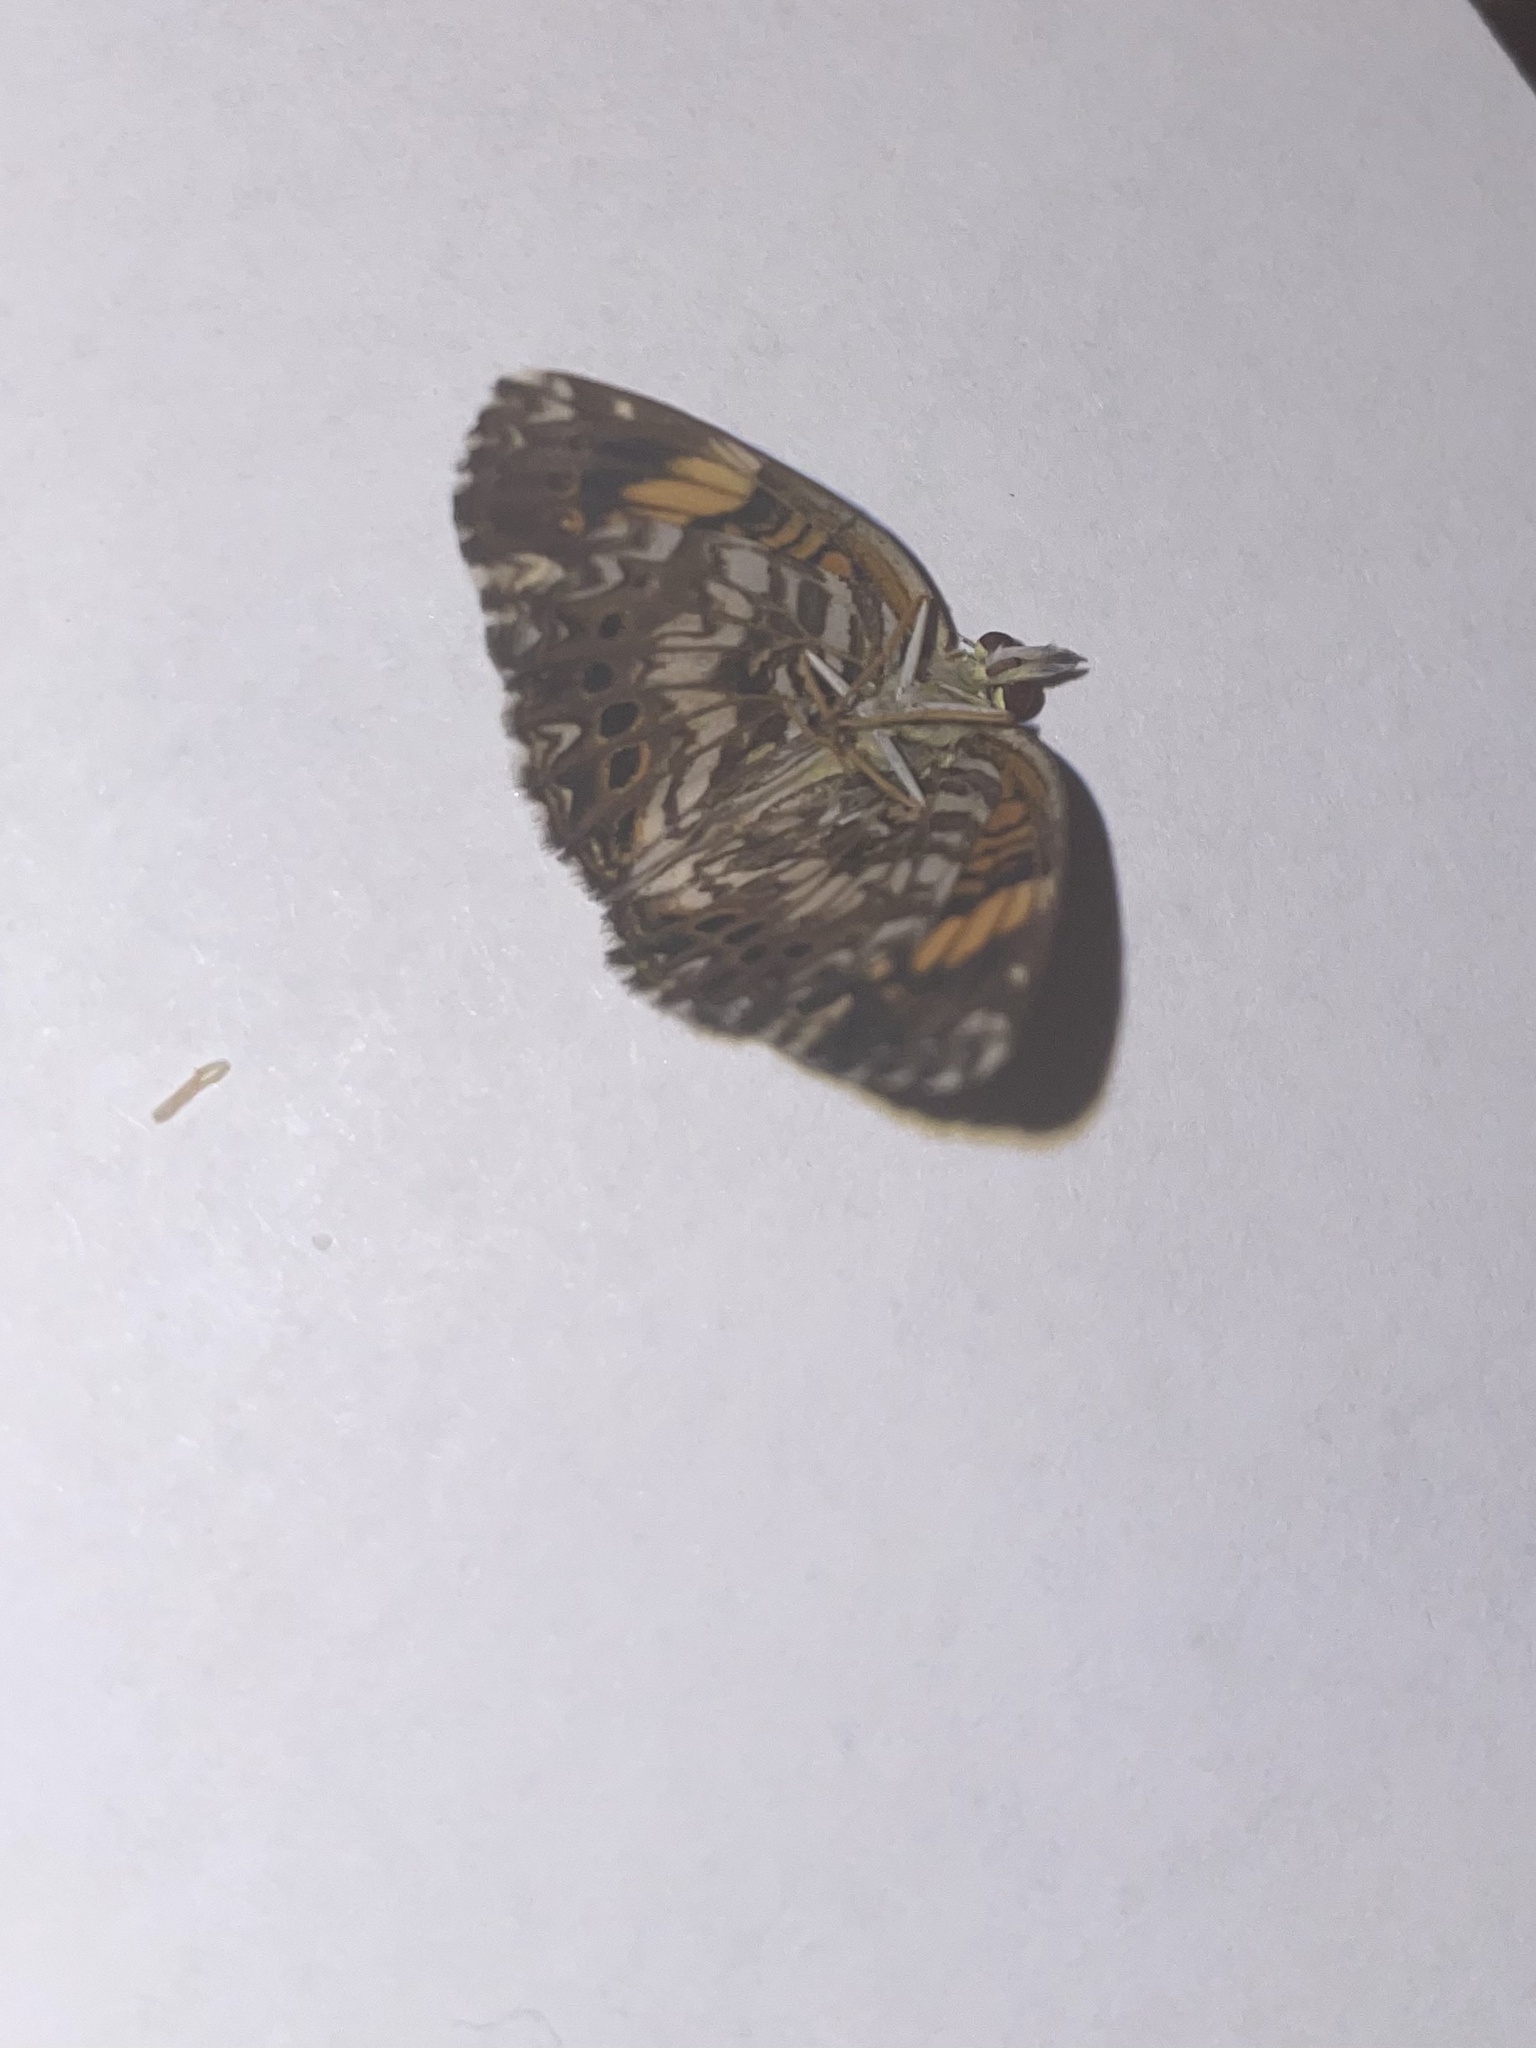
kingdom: Animalia
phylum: Arthropoda
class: Insecta
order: Lepidoptera
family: Nymphalidae
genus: Chlosyne
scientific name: Chlosyne gorgone
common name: Gorgone checkerspot
